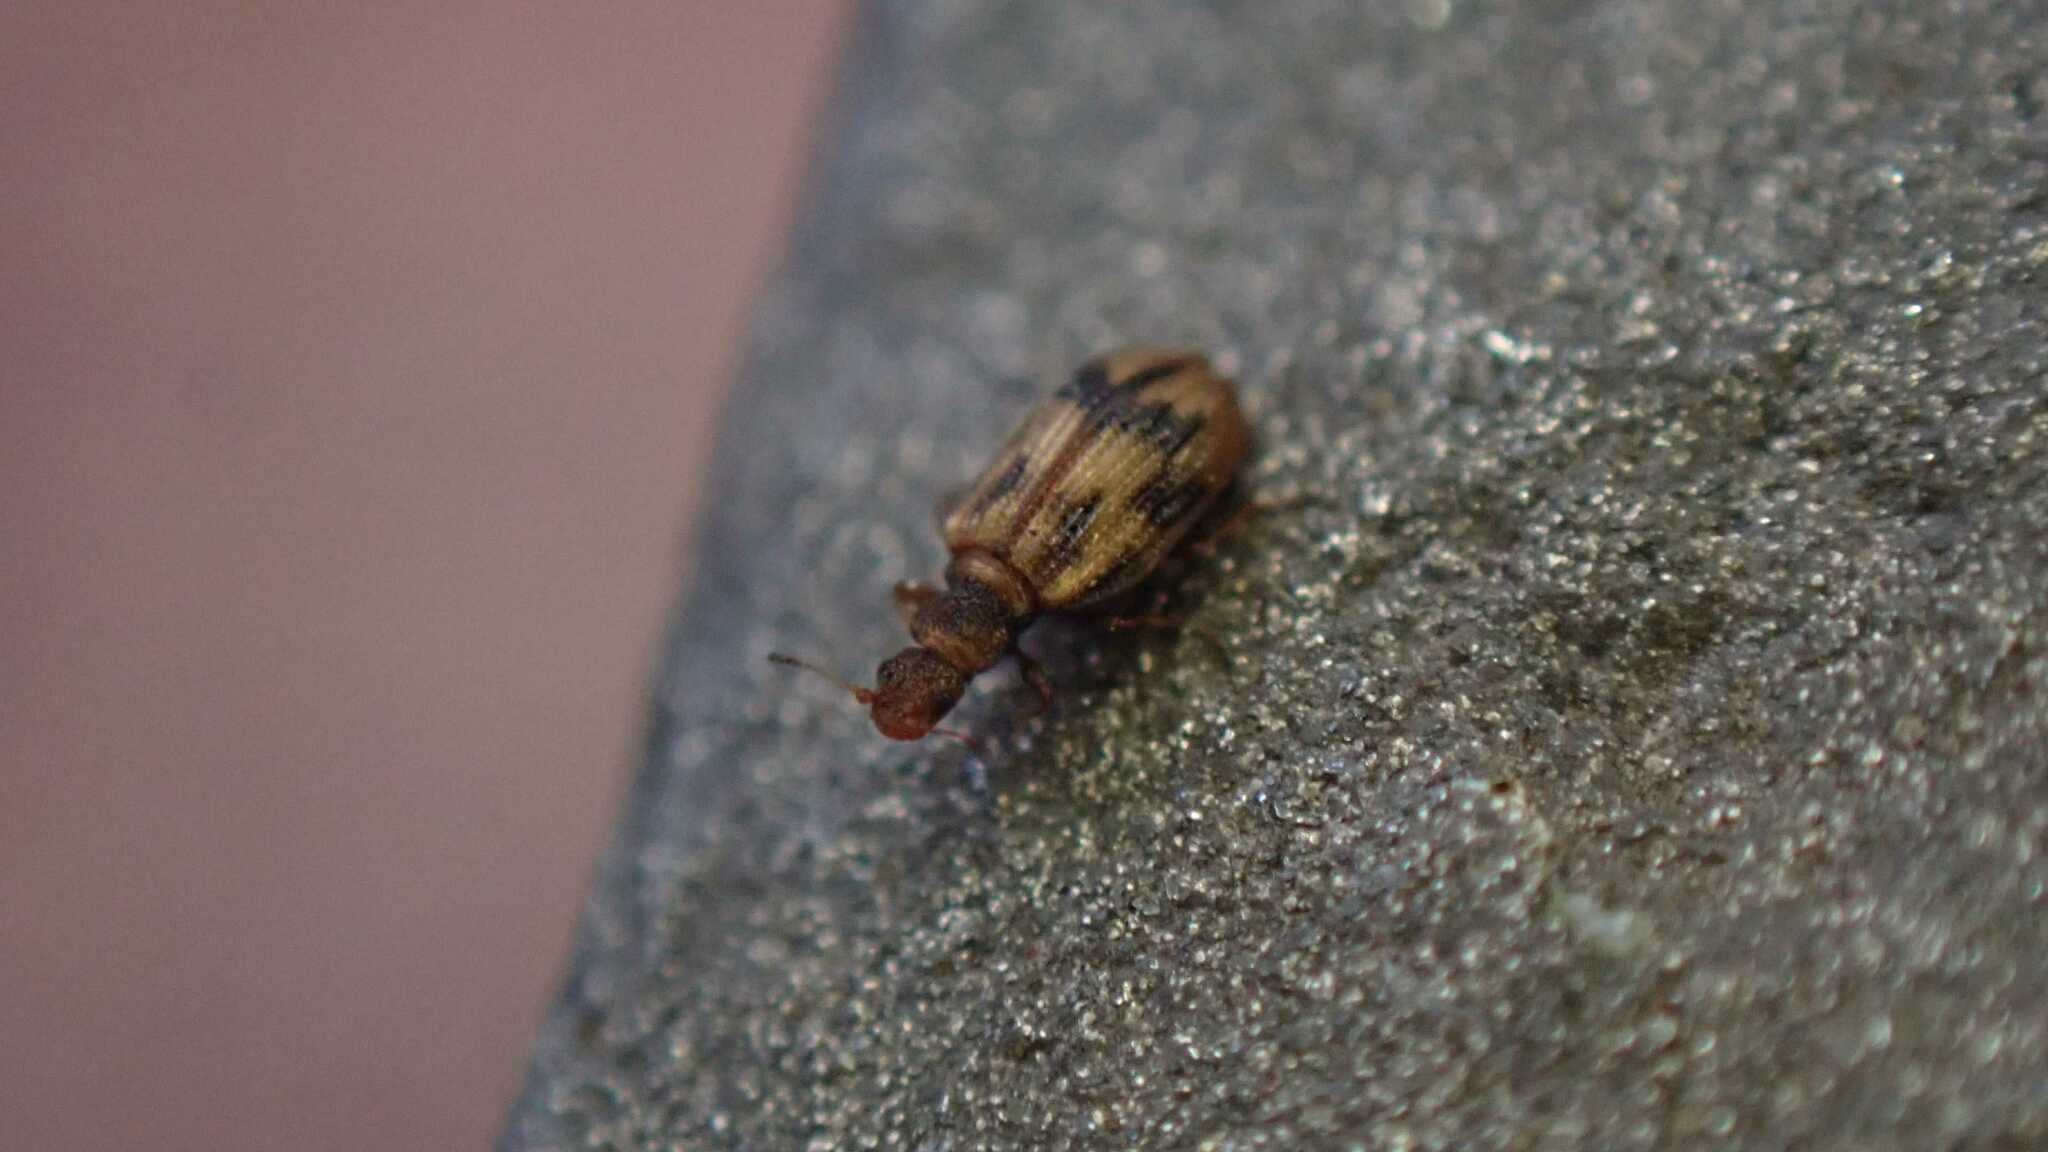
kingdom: Animalia
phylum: Arthropoda
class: Insecta
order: Coleoptera
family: Latridiidae
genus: Cartodere
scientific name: Cartodere bifasciata
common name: Plaster beetle
